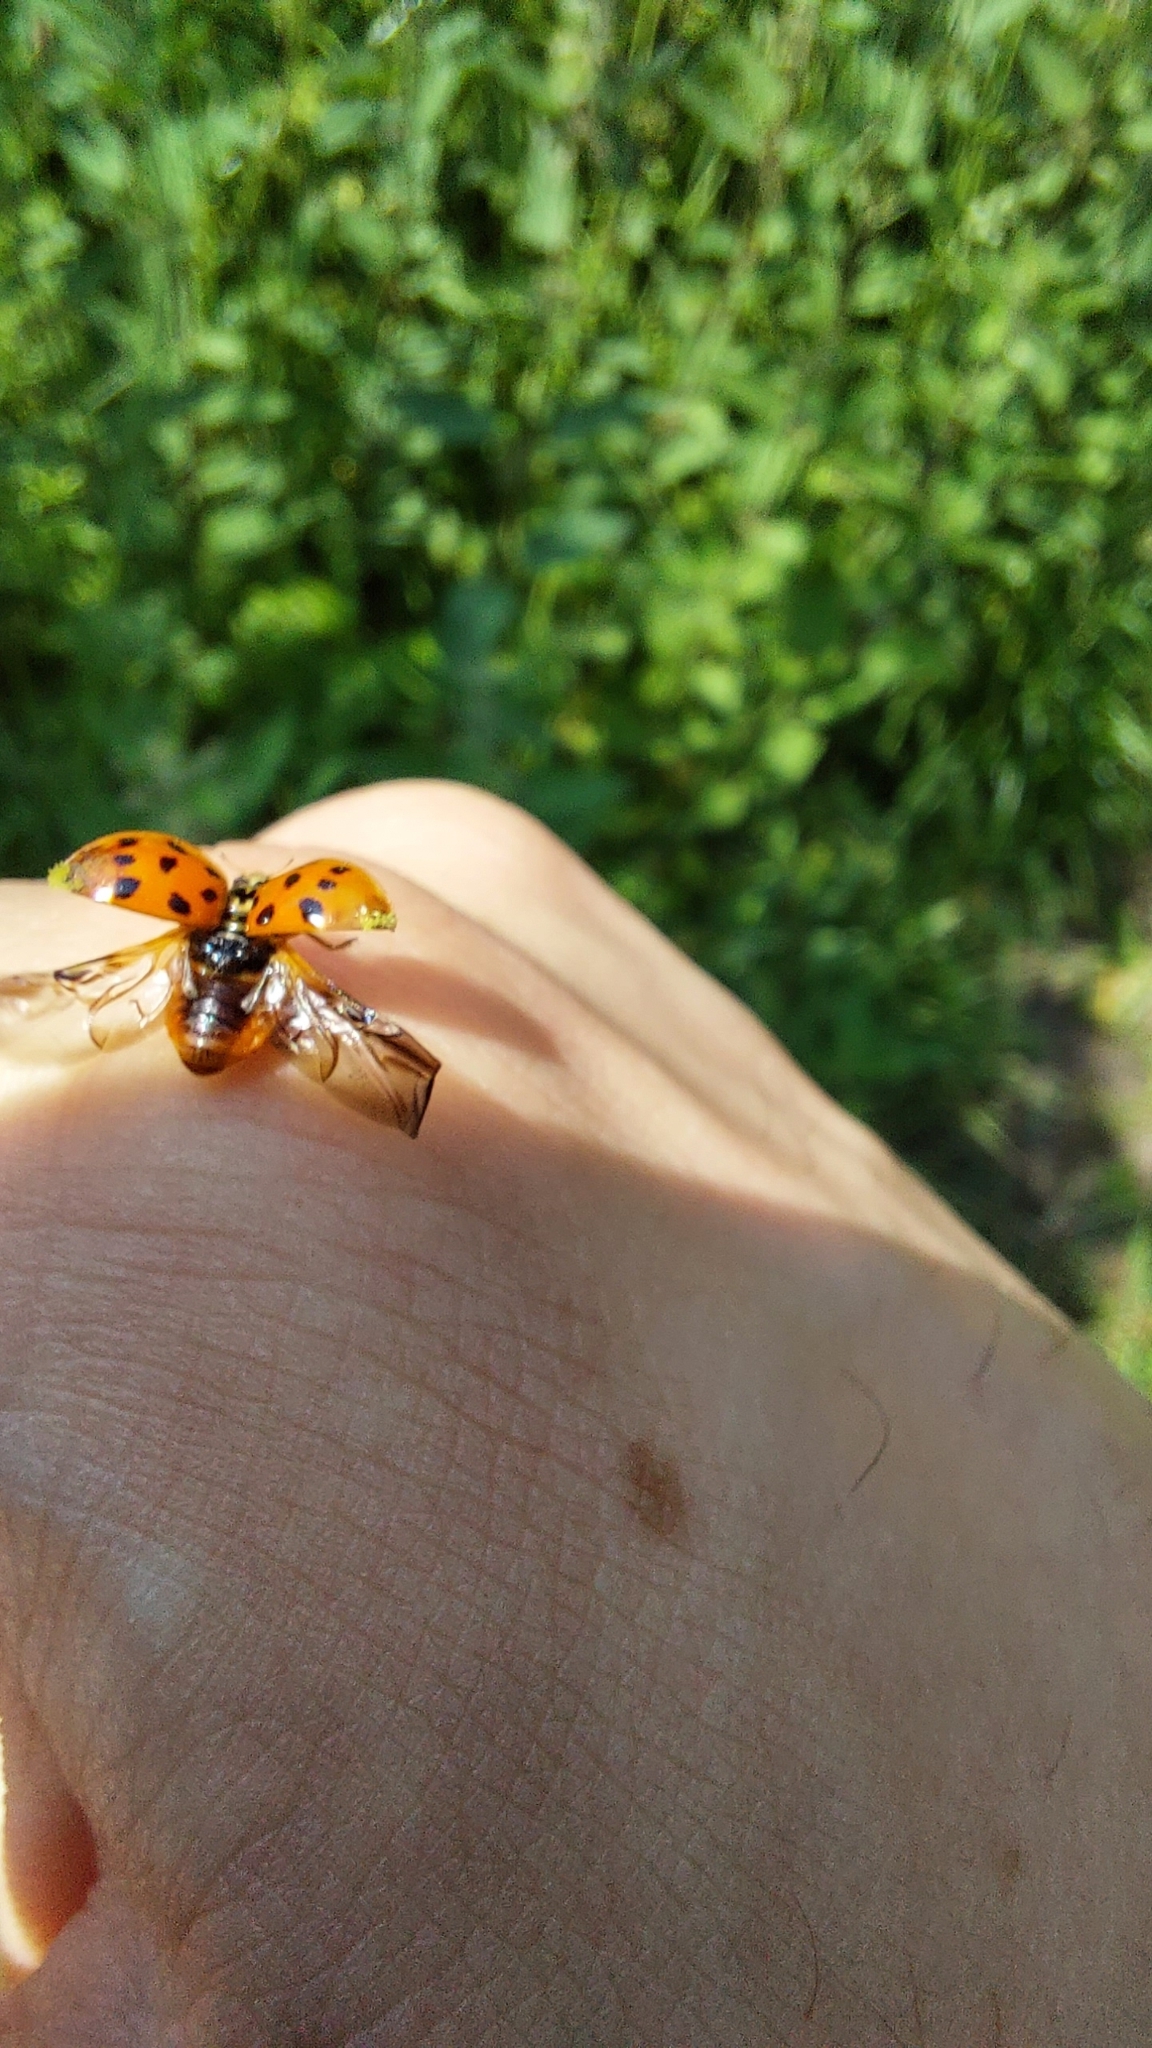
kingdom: Animalia
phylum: Arthropoda
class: Insecta
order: Coleoptera
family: Coccinellidae
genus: Harmonia
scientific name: Harmonia axyridis
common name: Harlequin ladybird
